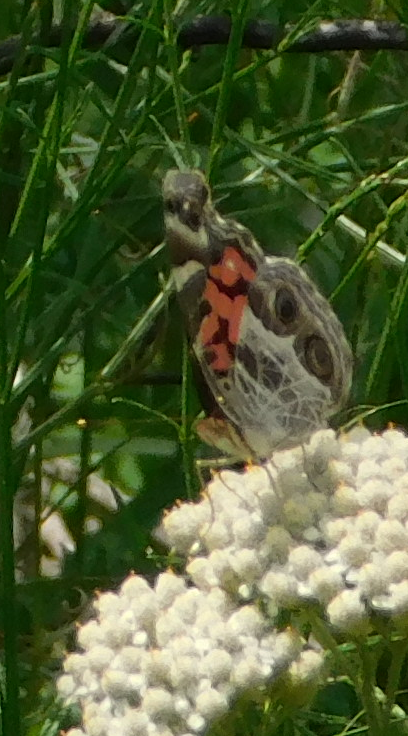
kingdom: Animalia
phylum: Arthropoda
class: Insecta
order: Lepidoptera
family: Nymphalidae
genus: Vanessa
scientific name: Vanessa virginiensis
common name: American lady
